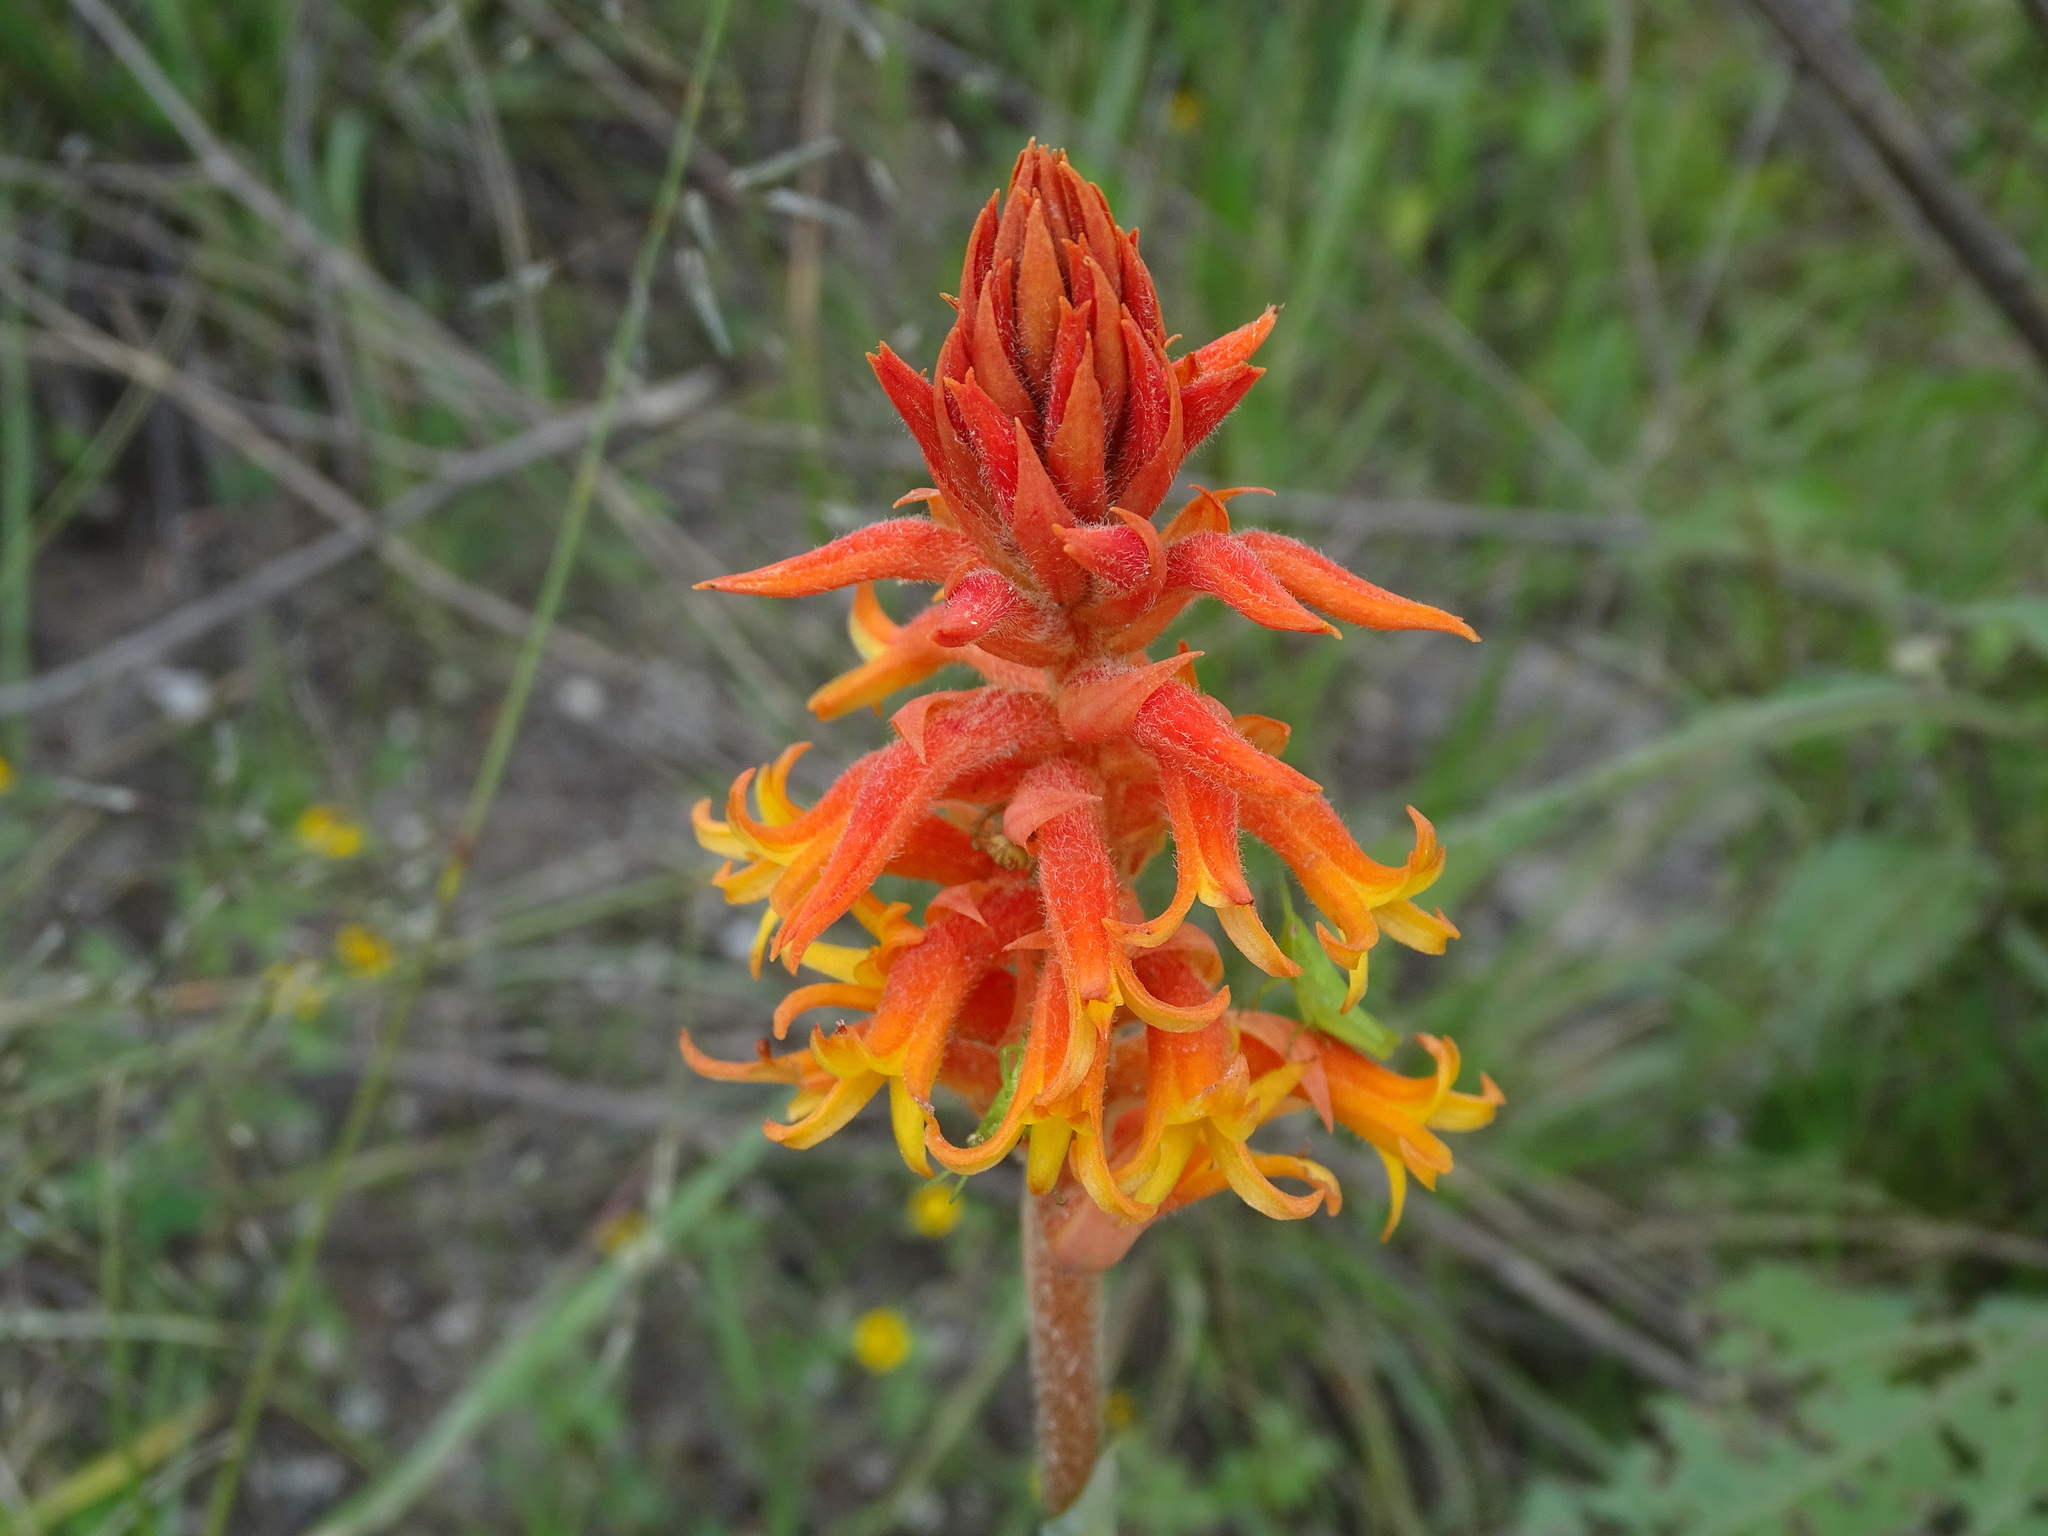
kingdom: Plantae
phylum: Tracheophyta
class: Liliopsida
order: Asparagales
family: Orchidaceae
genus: Dichromanthus
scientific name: Dichromanthus cinnabarinus
